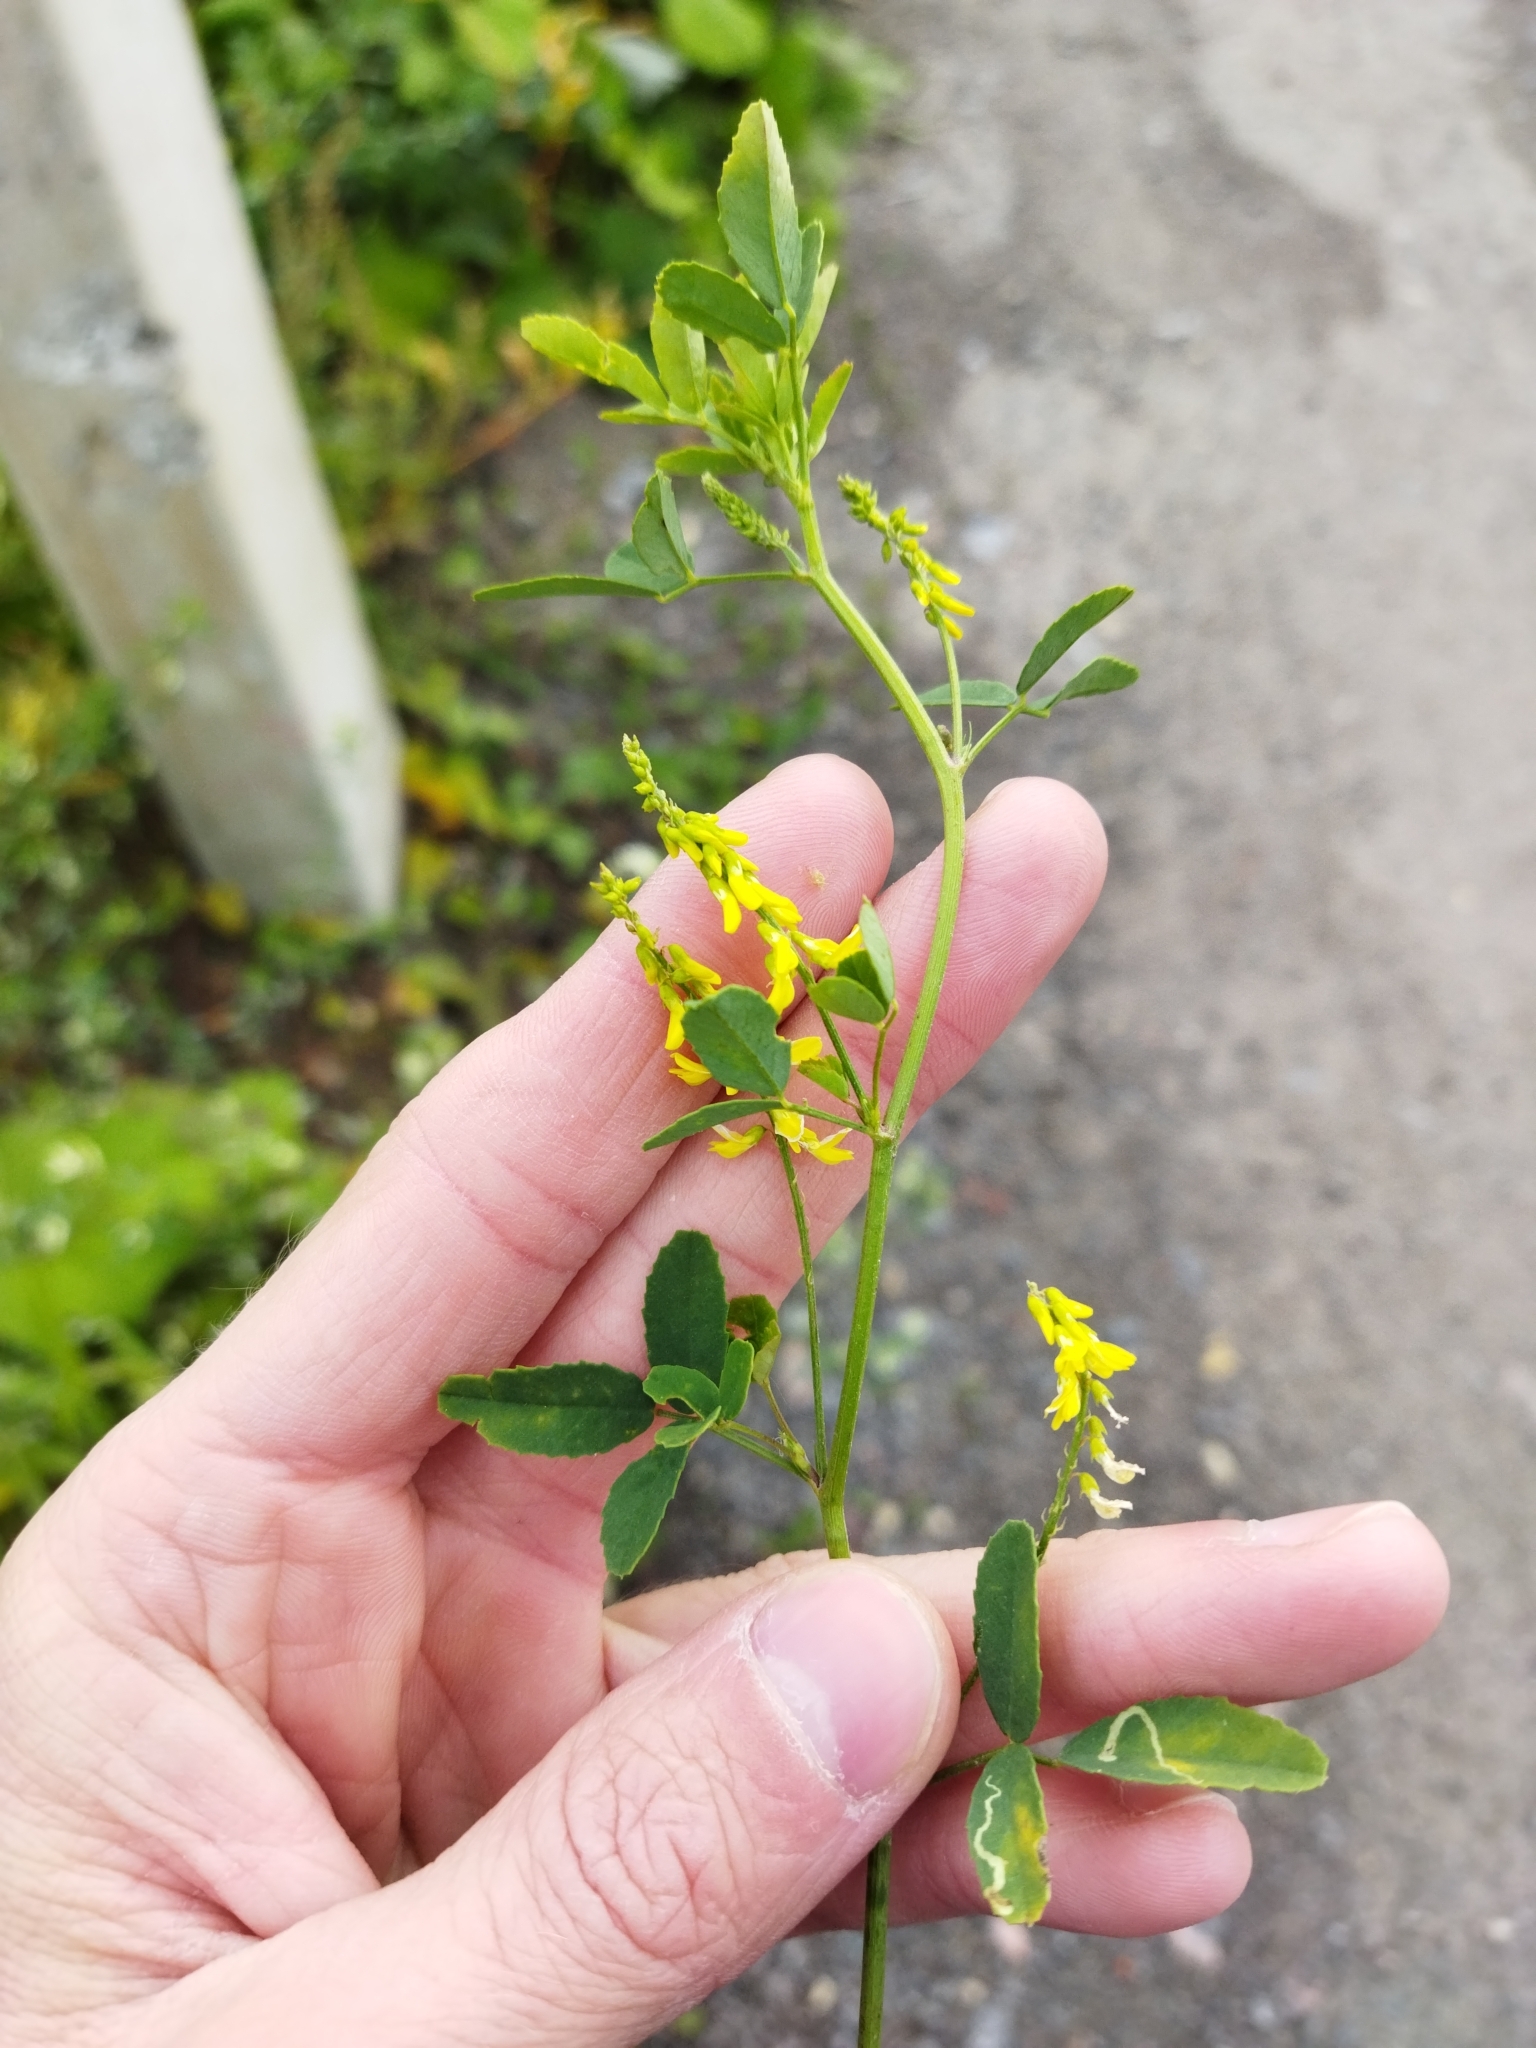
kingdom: Plantae
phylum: Tracheophyta
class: Magnoliopsida
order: Fabales
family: Fabaceae
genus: Melilotus
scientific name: Melilotus officinalis
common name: Sweetclover
